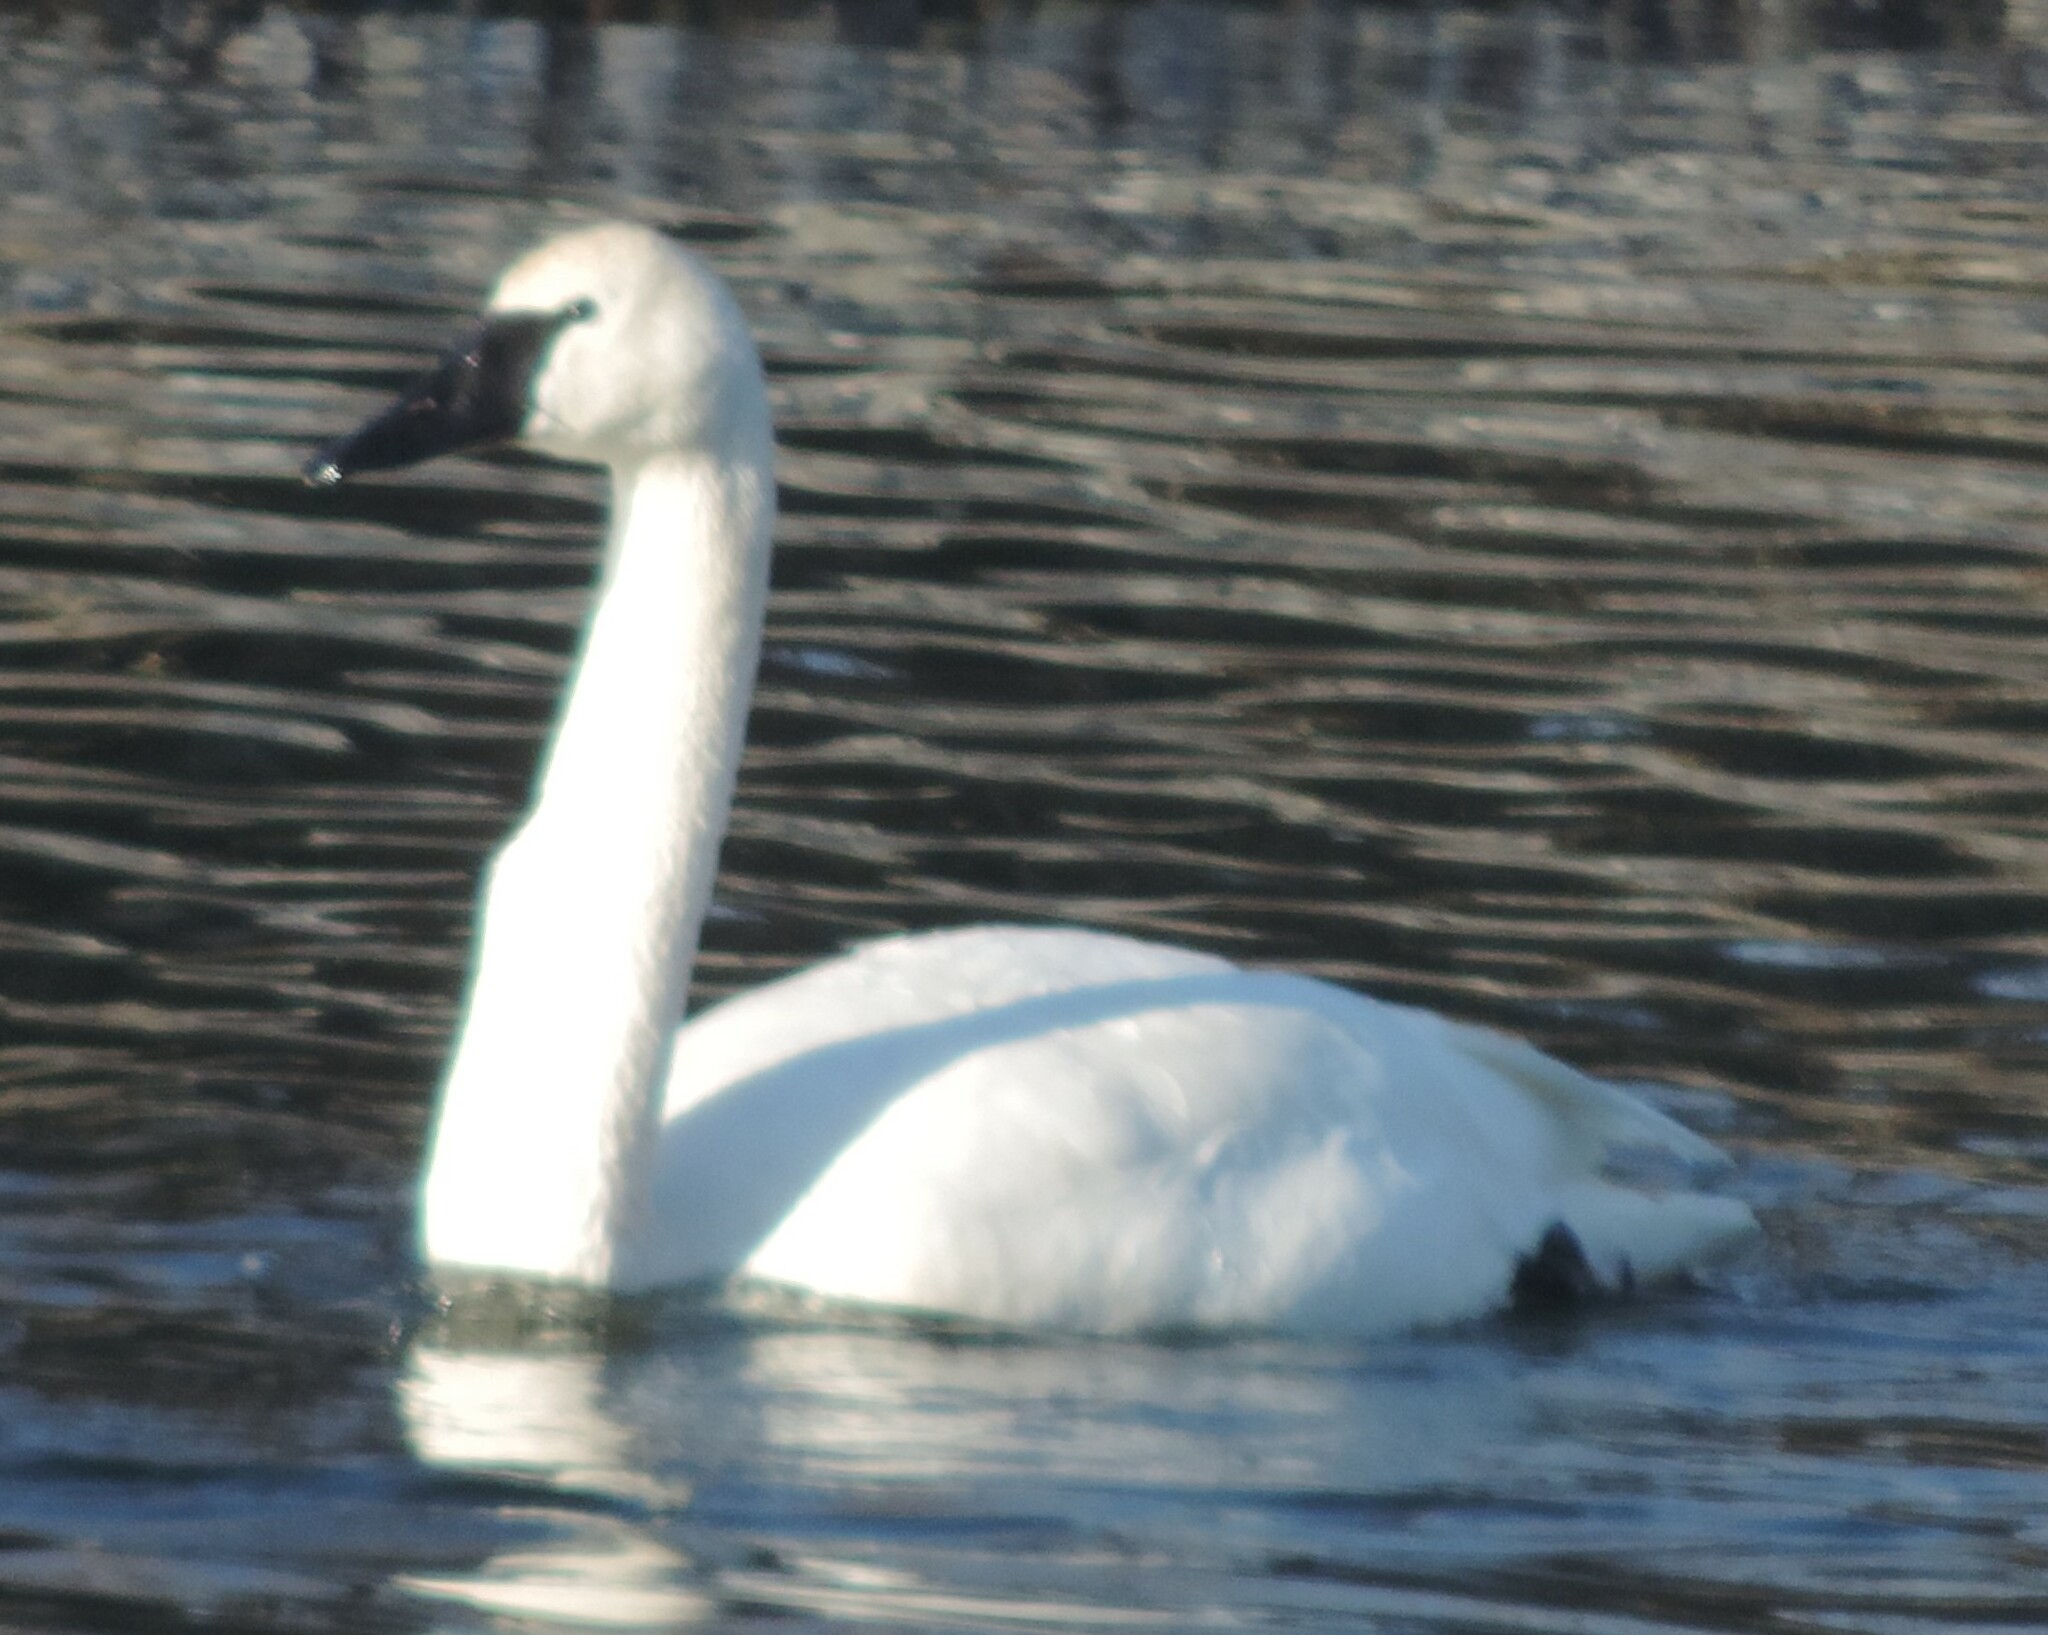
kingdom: Animalia
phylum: Chordata
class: Aves
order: Anseriformes
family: Anatidae
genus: Cygnus
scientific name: Cygnus columbianus
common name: Tundra swan
